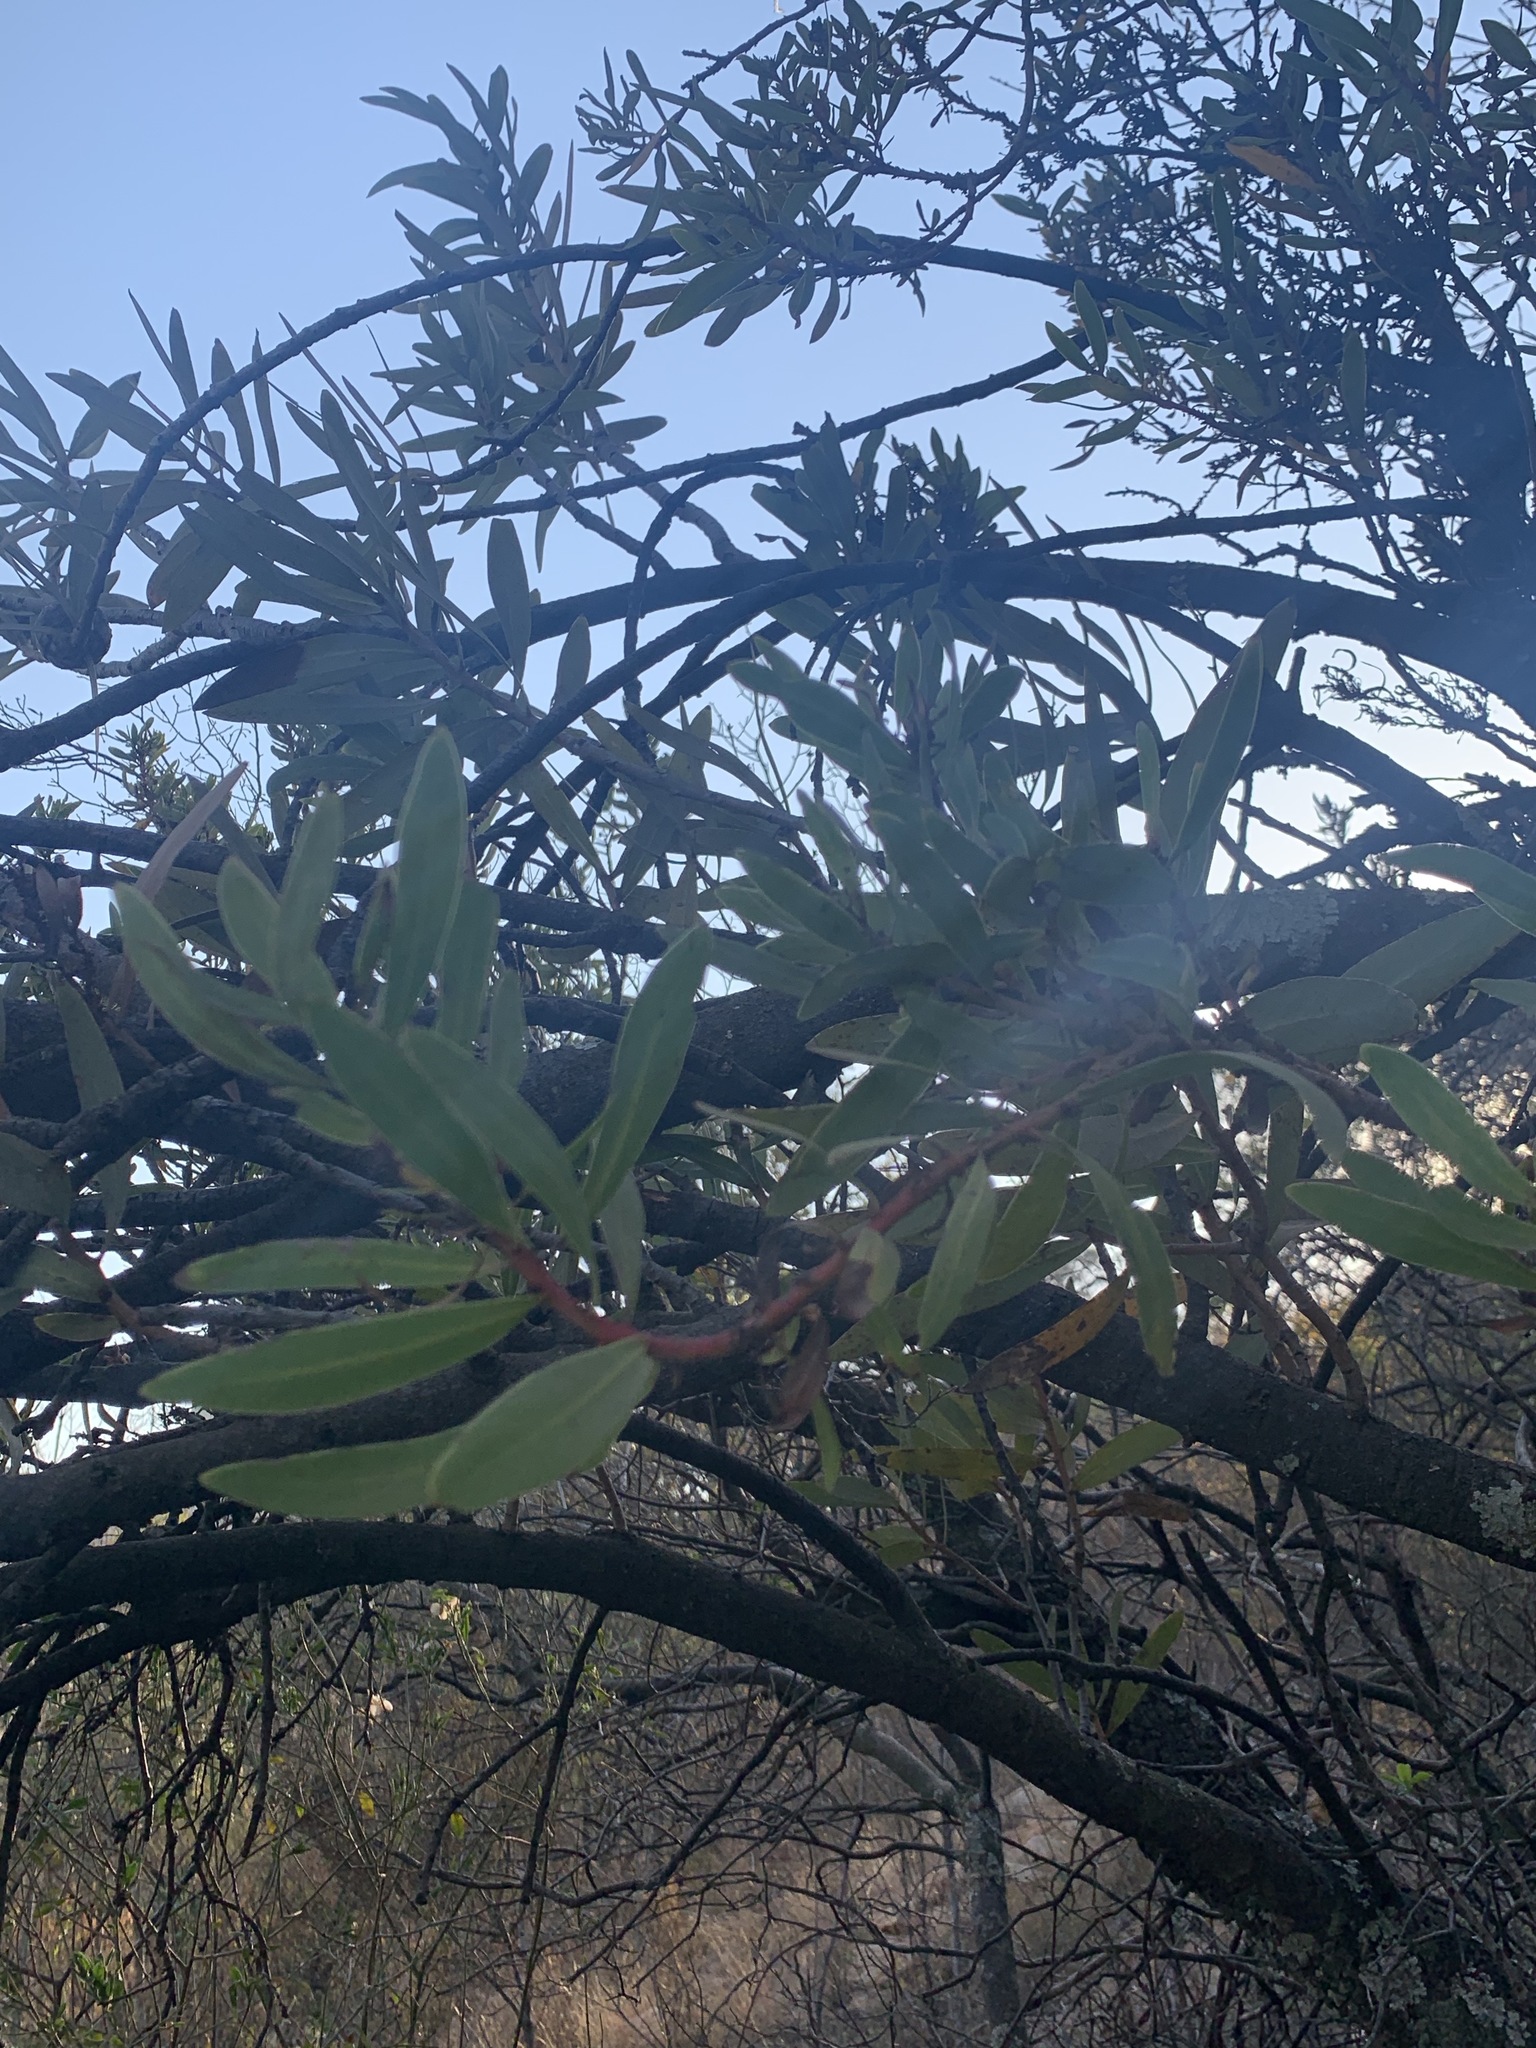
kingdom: Plantae
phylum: Tracheophyta
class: Magnoliopsida
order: Proteales
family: Proteaceae
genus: Protea
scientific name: Protea caffra
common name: Common sugarbush
